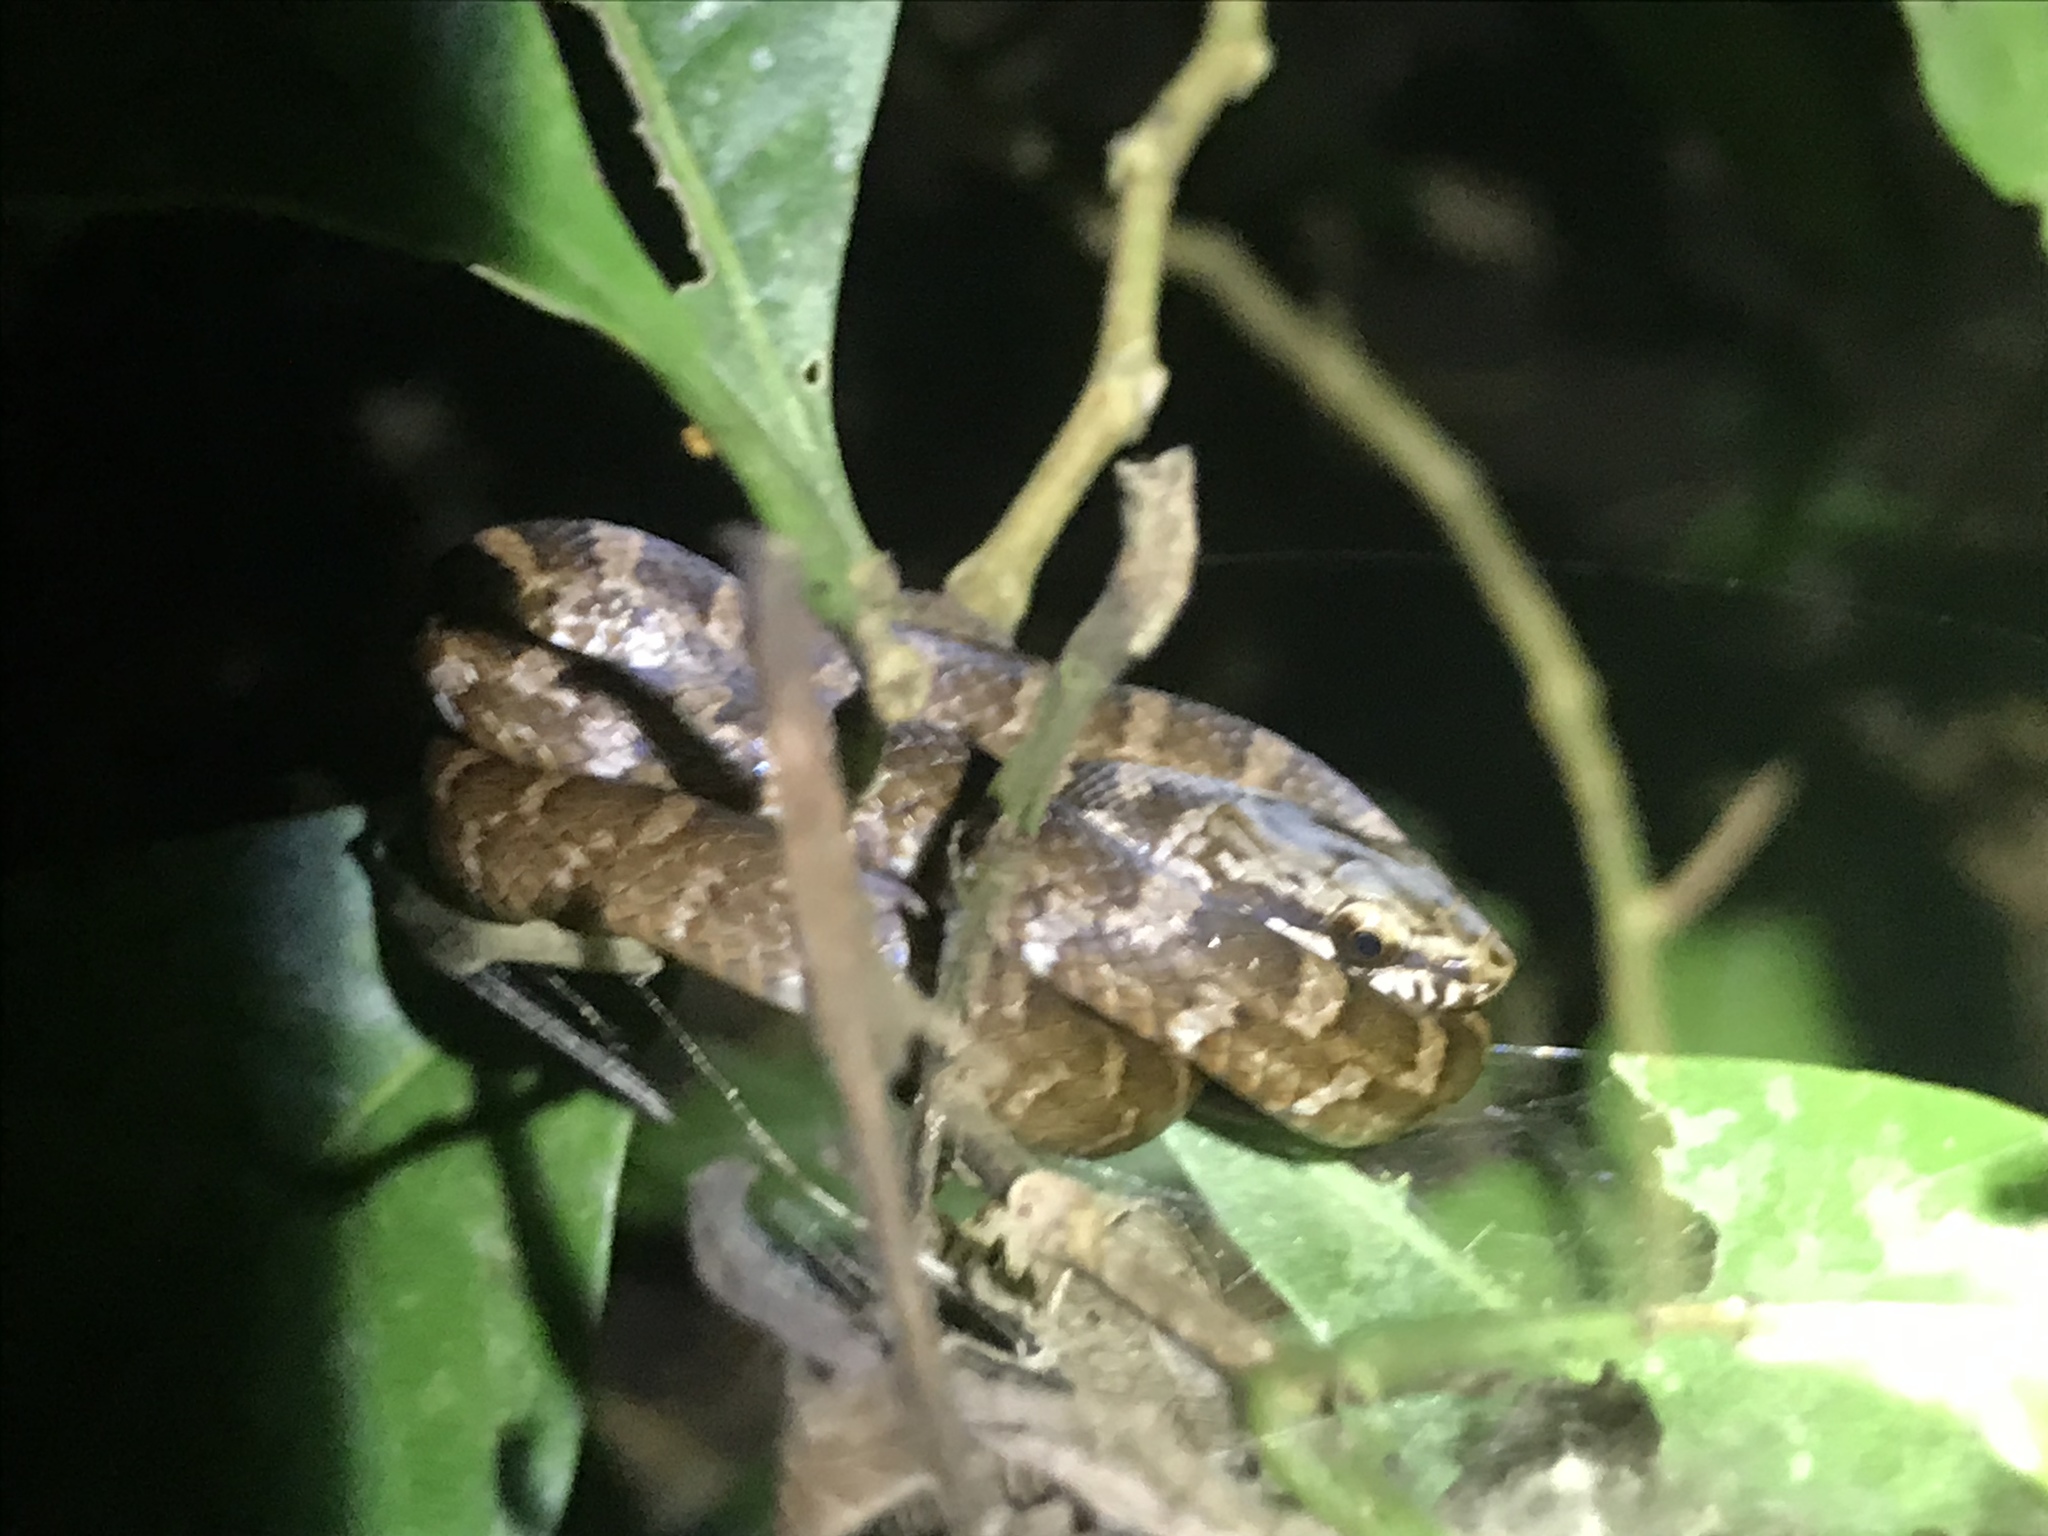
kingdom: Animalia
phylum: Chordata
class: Squamata
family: Colubridae
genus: Mastigodryas
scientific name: Mastigodryas alternatus
